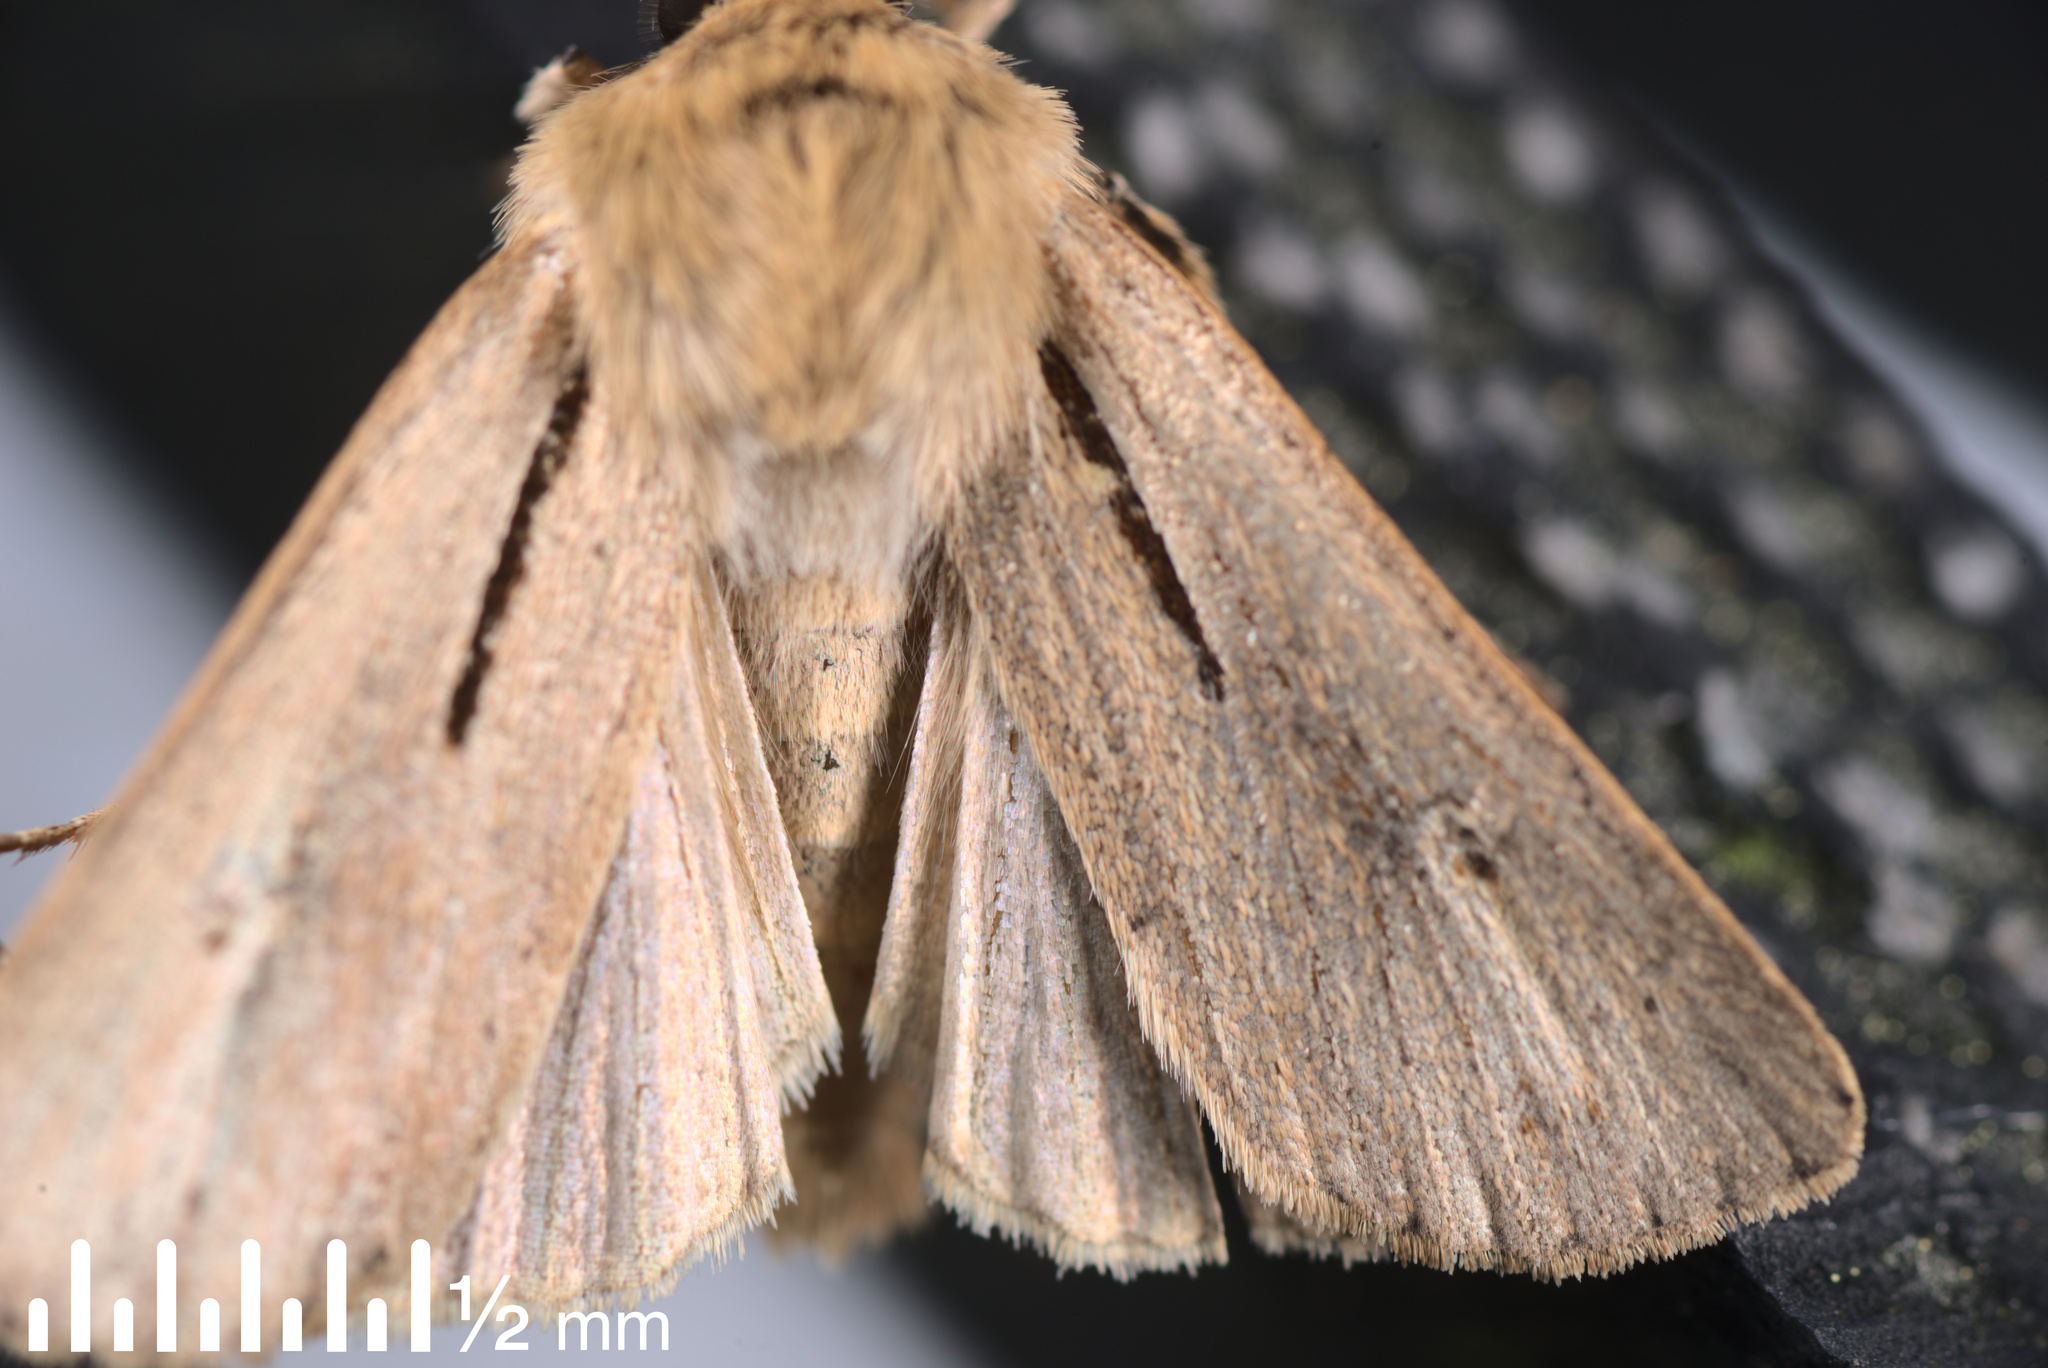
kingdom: Animalia
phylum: Arthropoda
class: Insecta
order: Lepidoptera
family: Noctuidae
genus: Ichneutica
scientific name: Ichneutica propria
